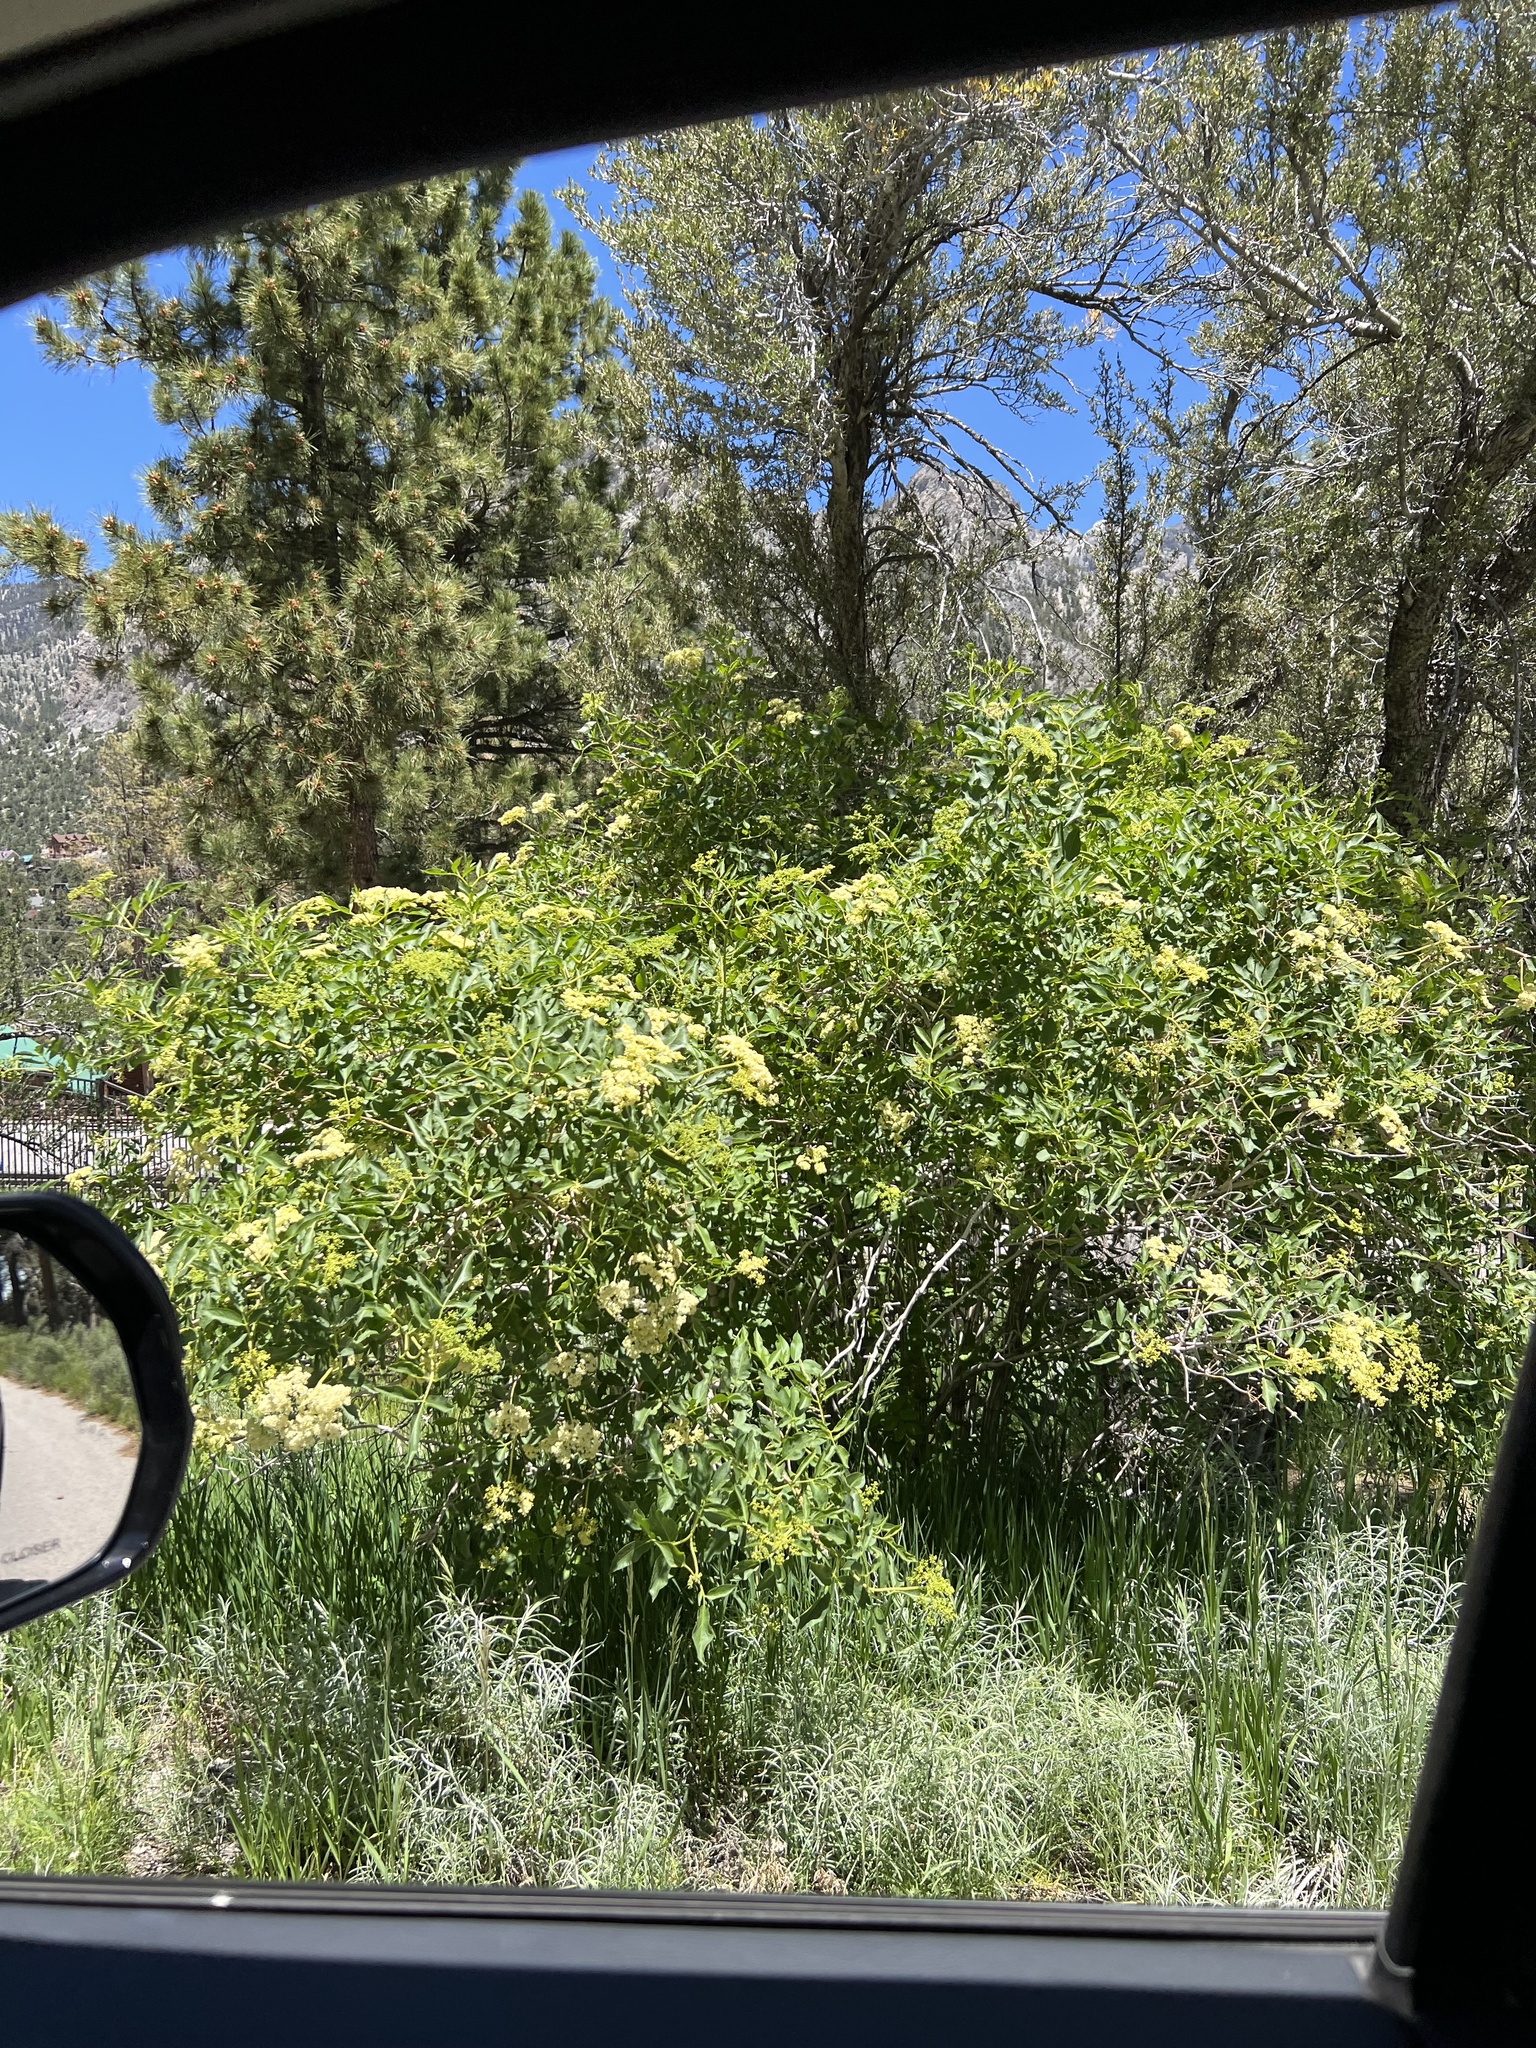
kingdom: Plantae
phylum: Tracheophyta
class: Magnoliopsida
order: Dipsacales
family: Viburnaceae
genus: Sambucus
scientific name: Sambucus cerulea
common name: Blue elder
